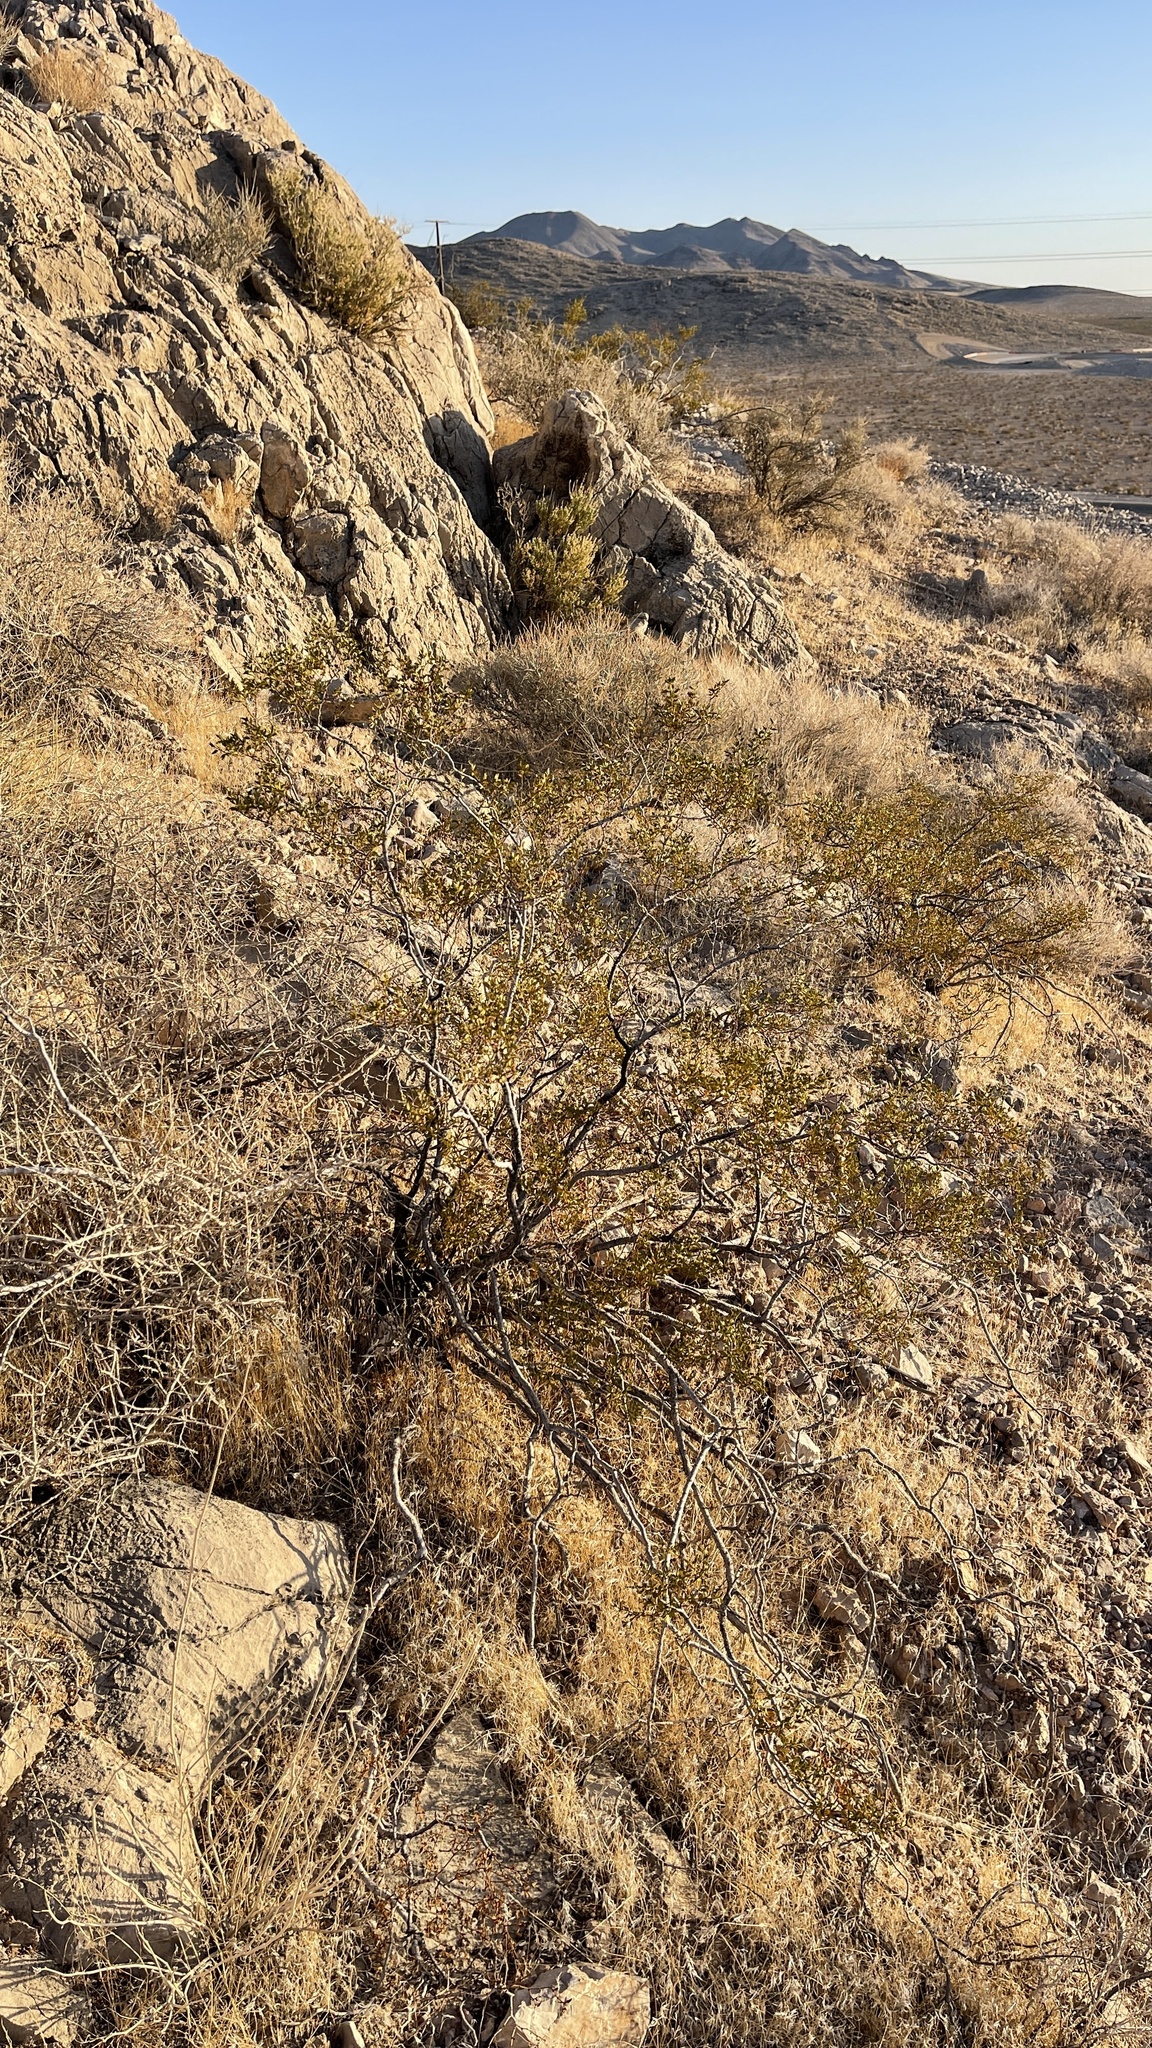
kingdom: Plantae
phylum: Tracheophyta
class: Magnoliopsida
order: Zygophyllales
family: Zygophyllaceae
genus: Larrea
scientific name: Larrea tridentata
